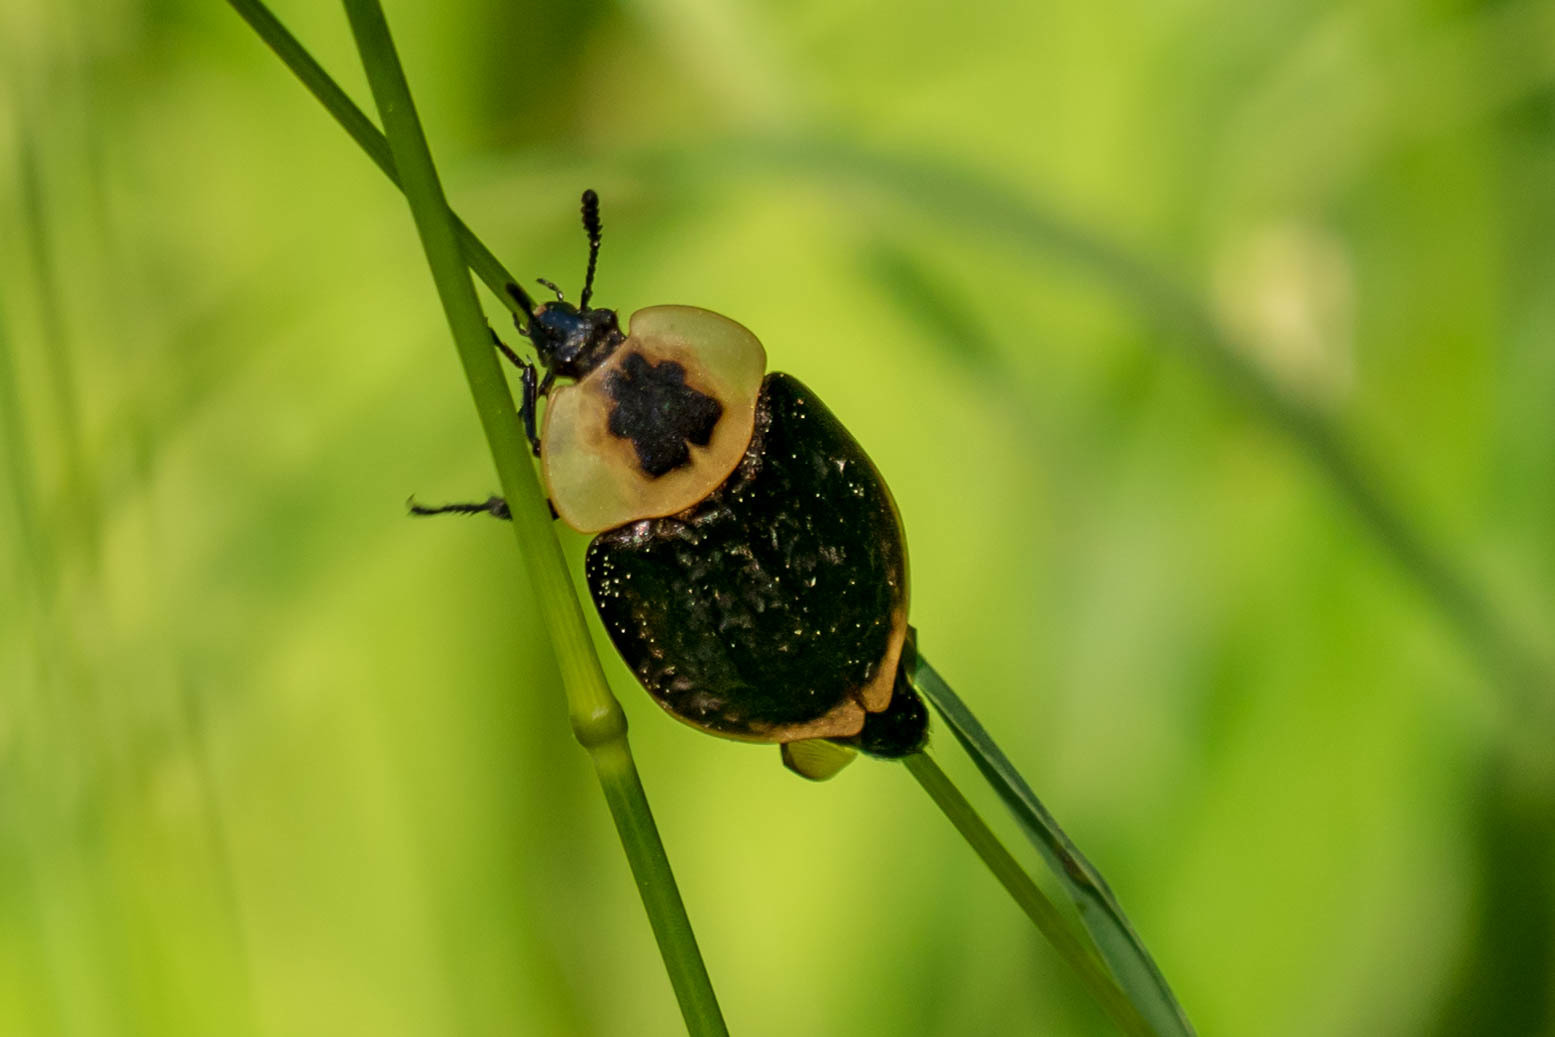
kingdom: Animalia
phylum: Arthropoda
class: Insecta
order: Coleoptera
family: Staphylinidae
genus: Necrophila
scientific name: Necrophila americana
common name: American carrion beetle
